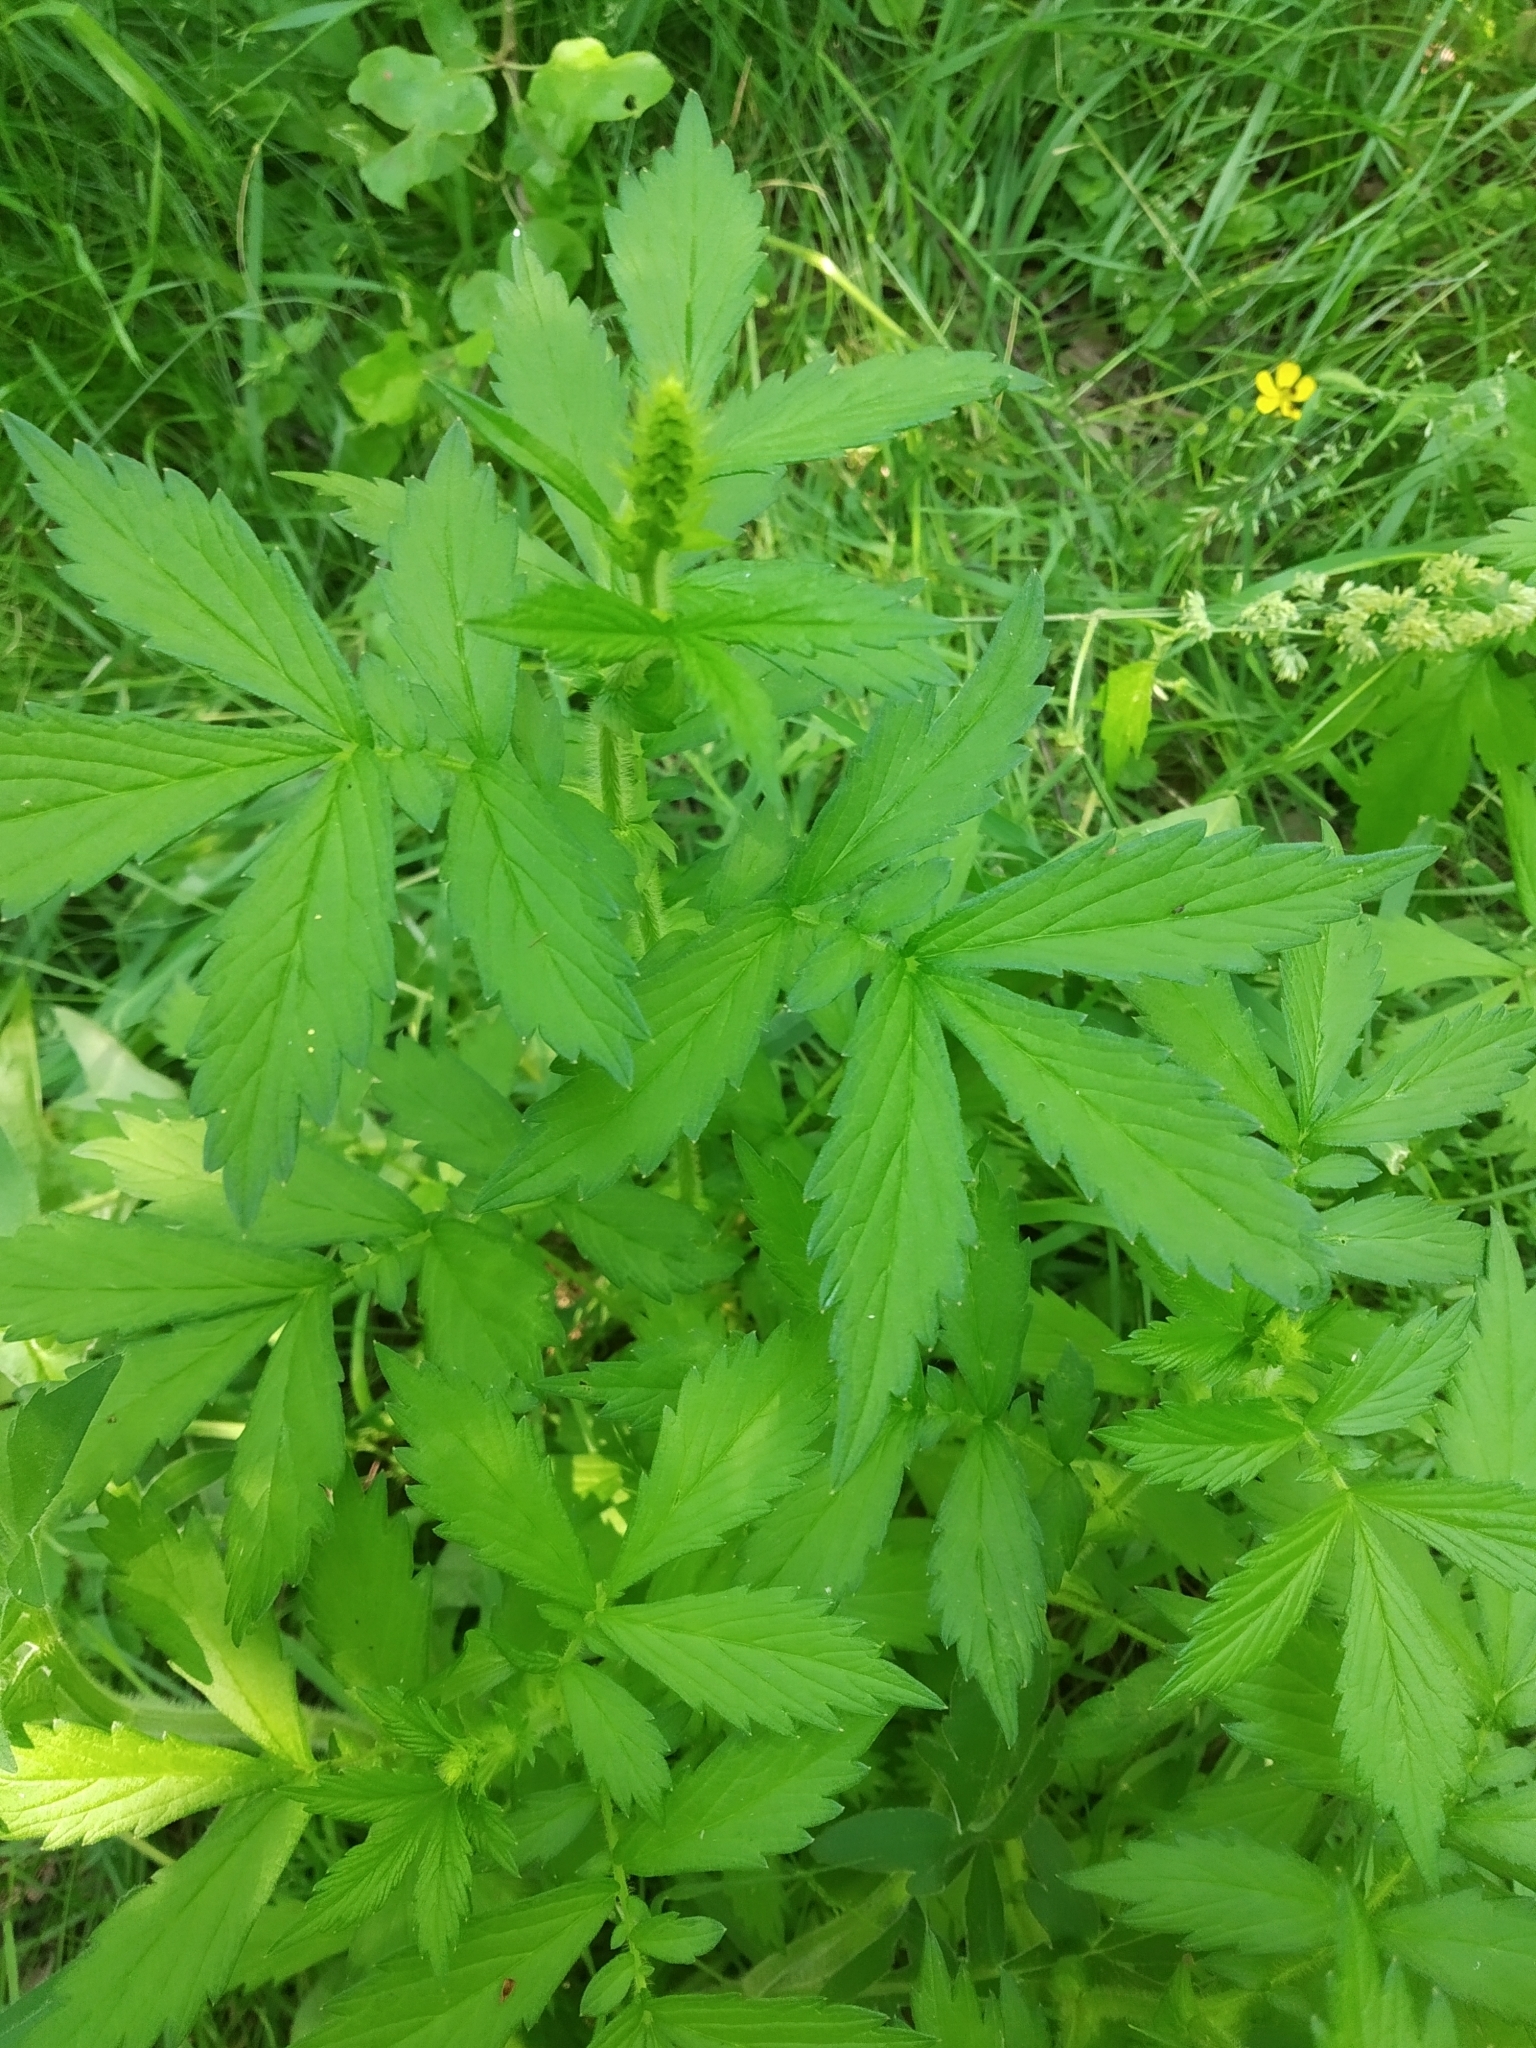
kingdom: Plantae
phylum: Tracheophyta
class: Magnoliopsida
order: Rosales
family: Rosaceae
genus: Agrimonia
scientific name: Agrimonia pilosa
